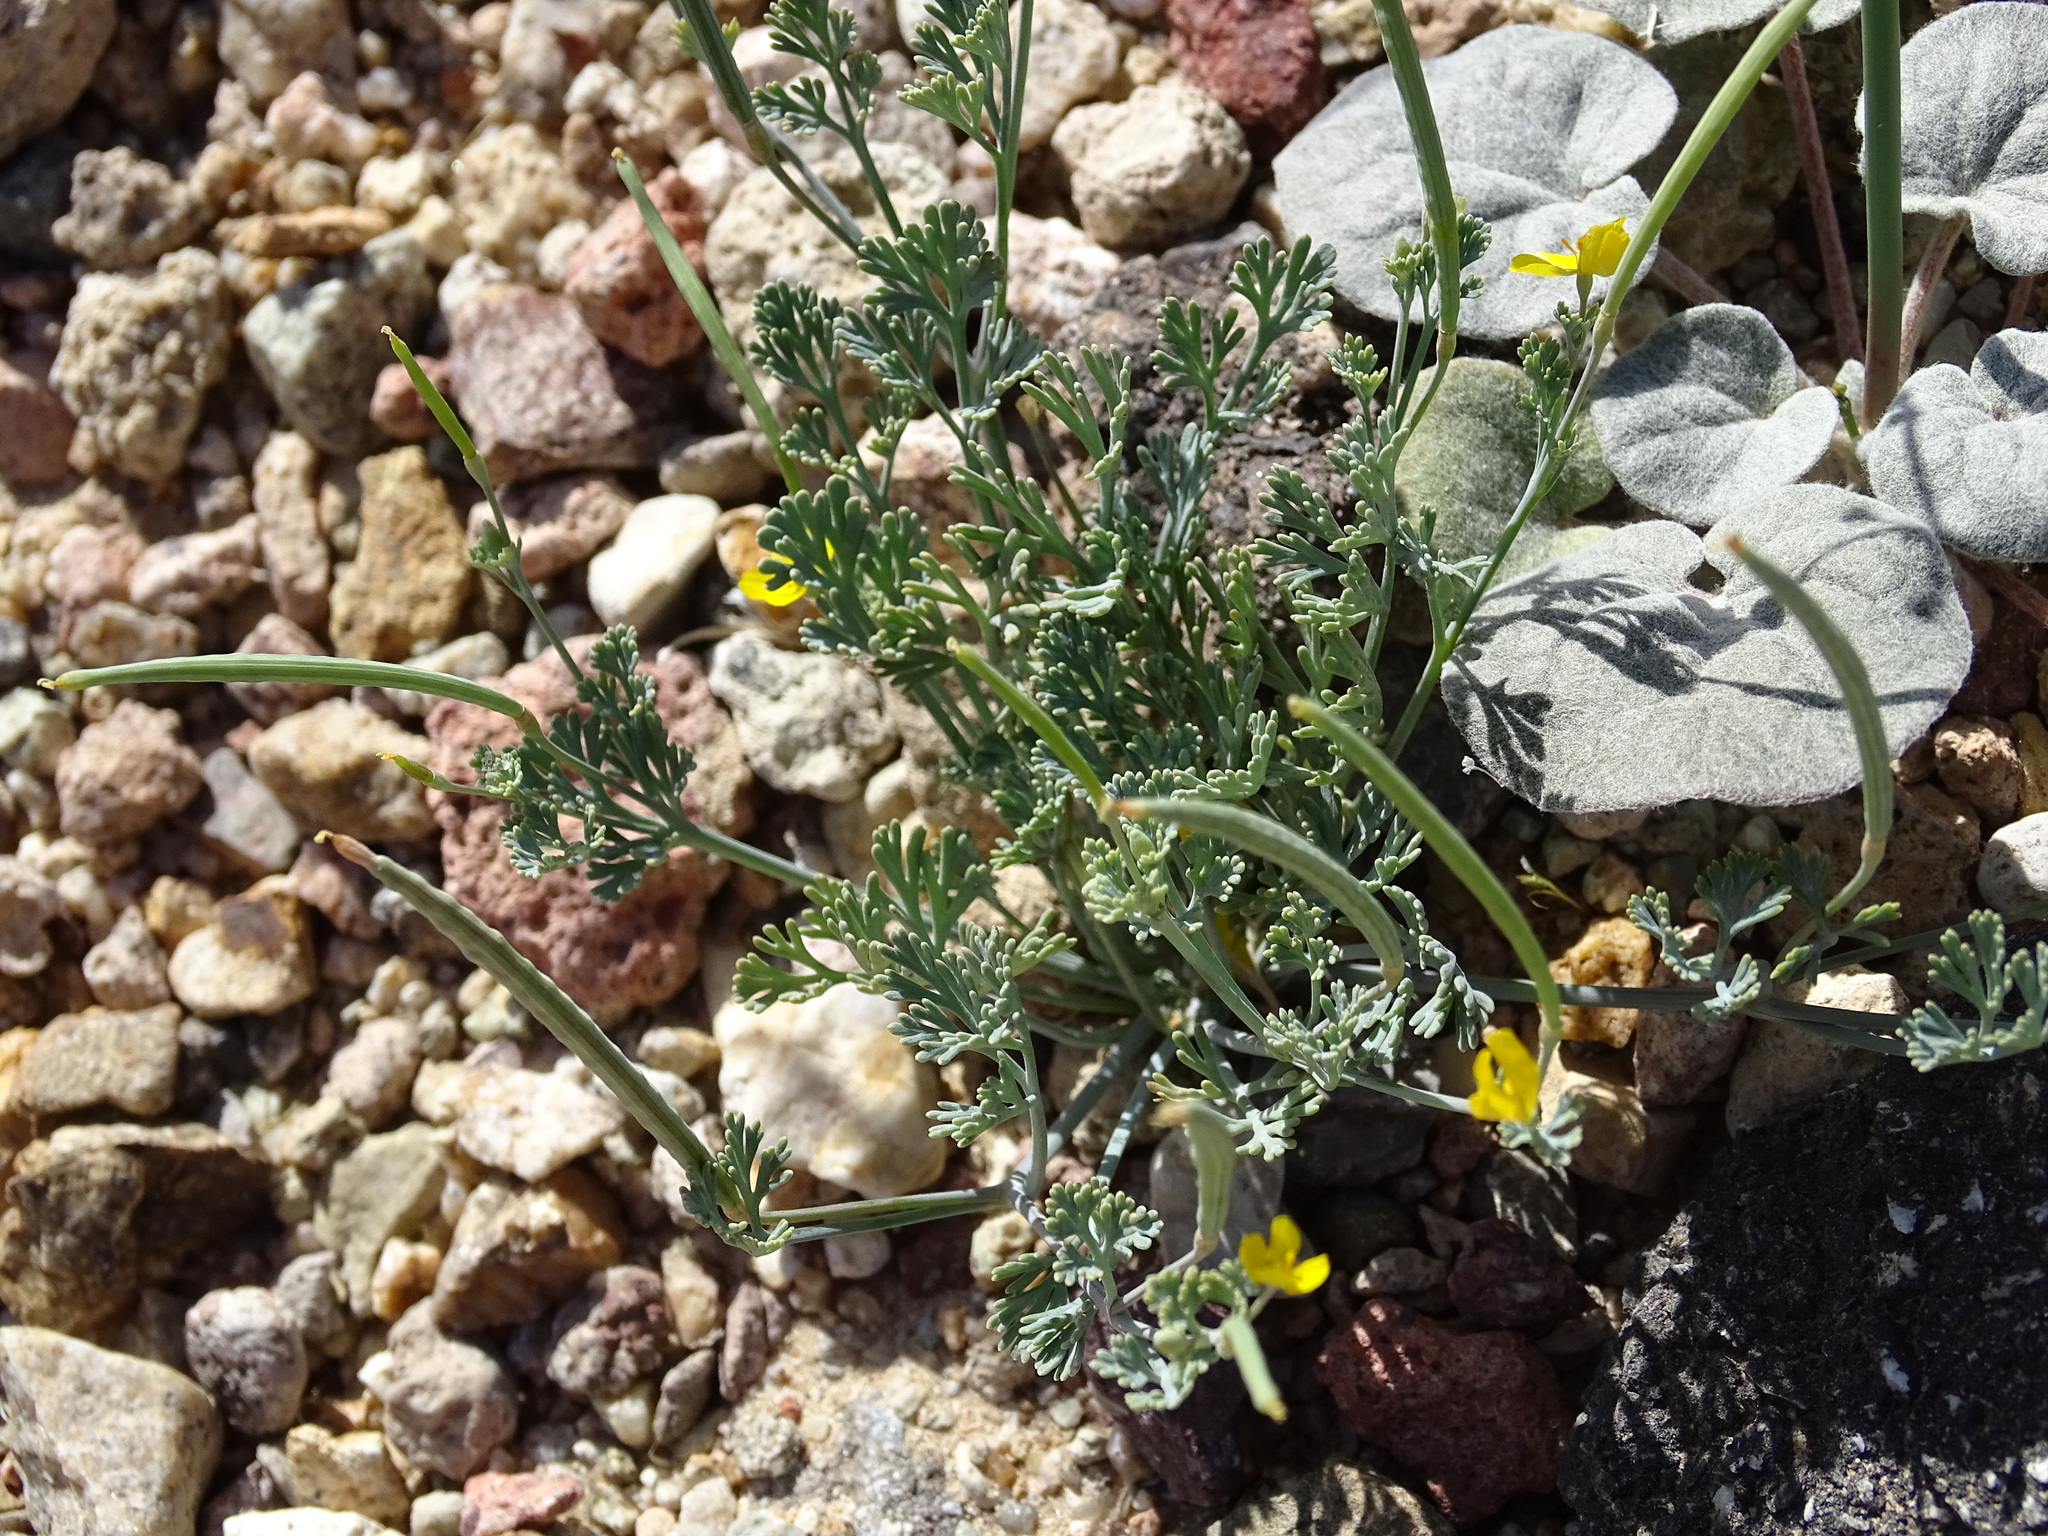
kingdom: Plantae
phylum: Tracheophyta
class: Magnoliopsida
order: Ranunculales
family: Papaveraceae
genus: Eschscholzia
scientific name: Eschscholzia minutiflora
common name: Small-flower california-poppy
